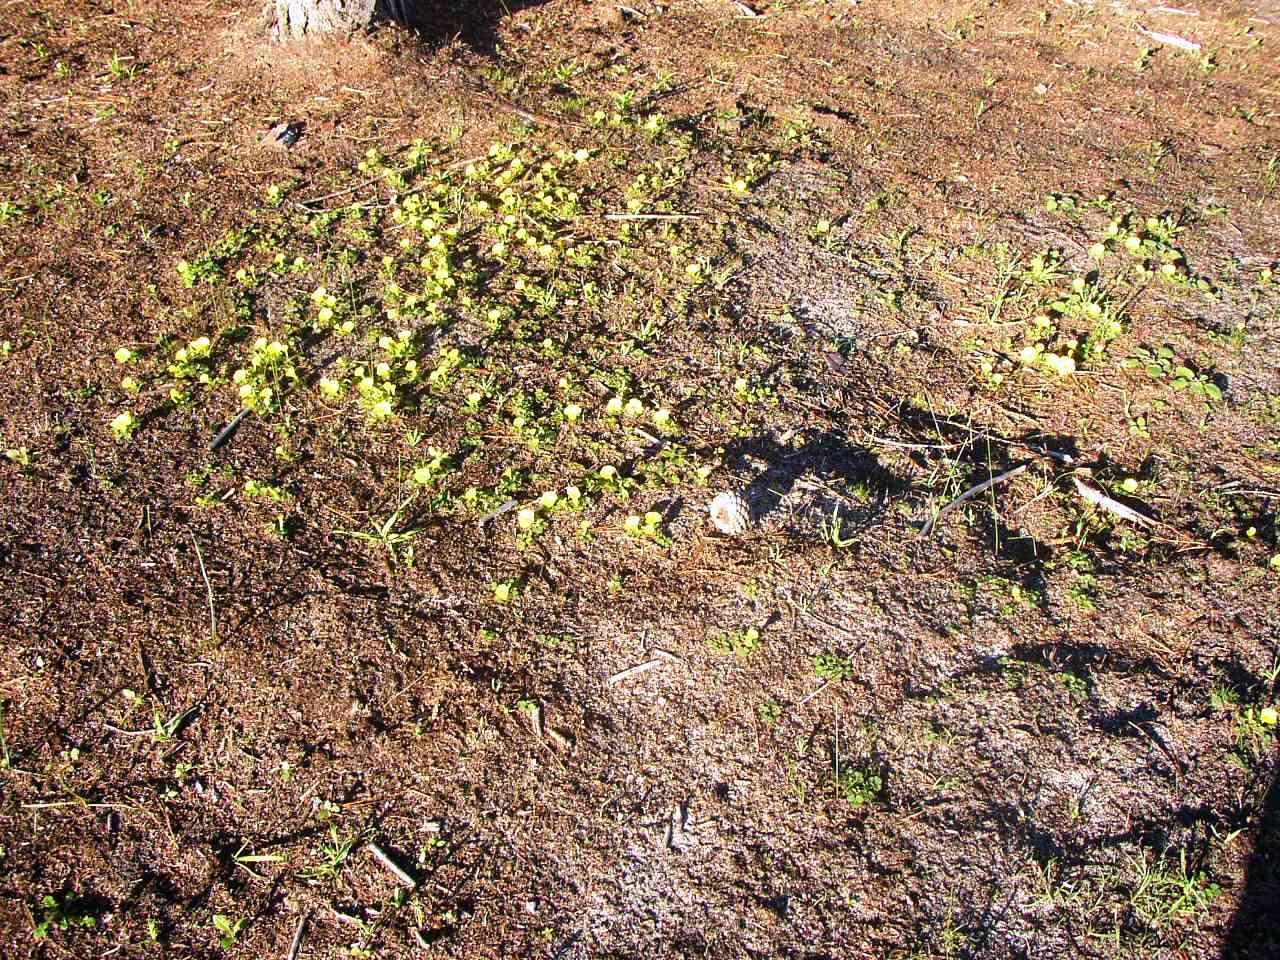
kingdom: Plantae
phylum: Tracheophyta
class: Magnoliopsida
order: Oxalidales
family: Oxalidaceae
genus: Oxalis
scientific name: Oxalis luteola
